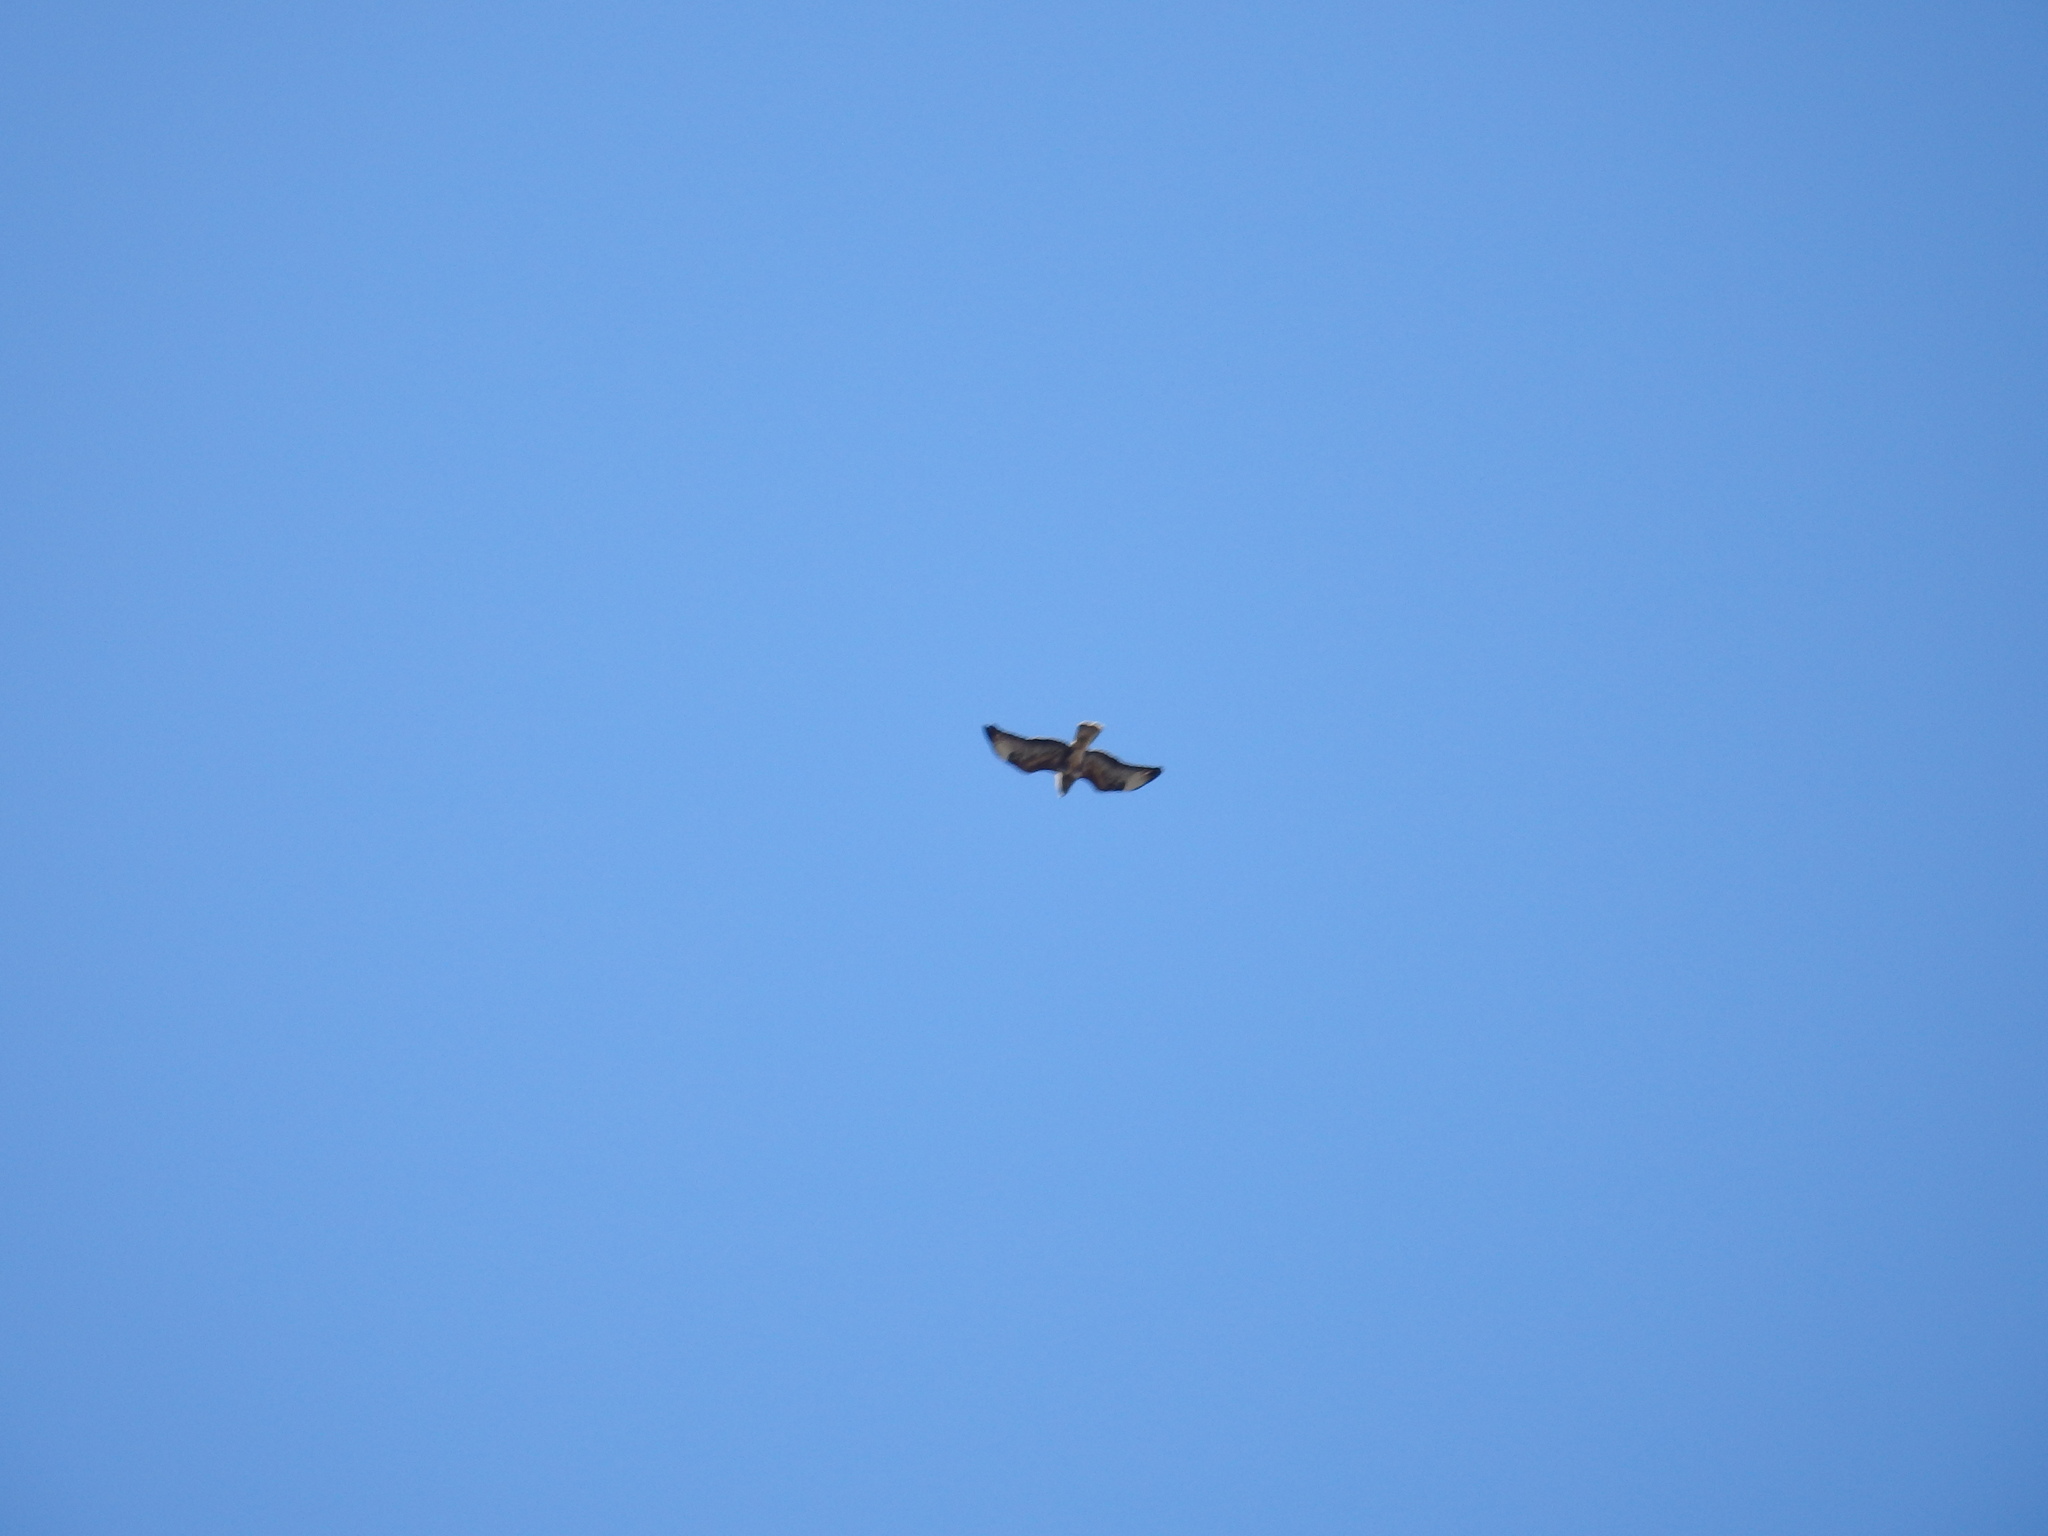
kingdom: Animalia
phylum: Chordata
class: Aves
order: Accipitriformes
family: Accipitridae
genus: Buteo
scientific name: Buteo buteo
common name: Common buzzard
